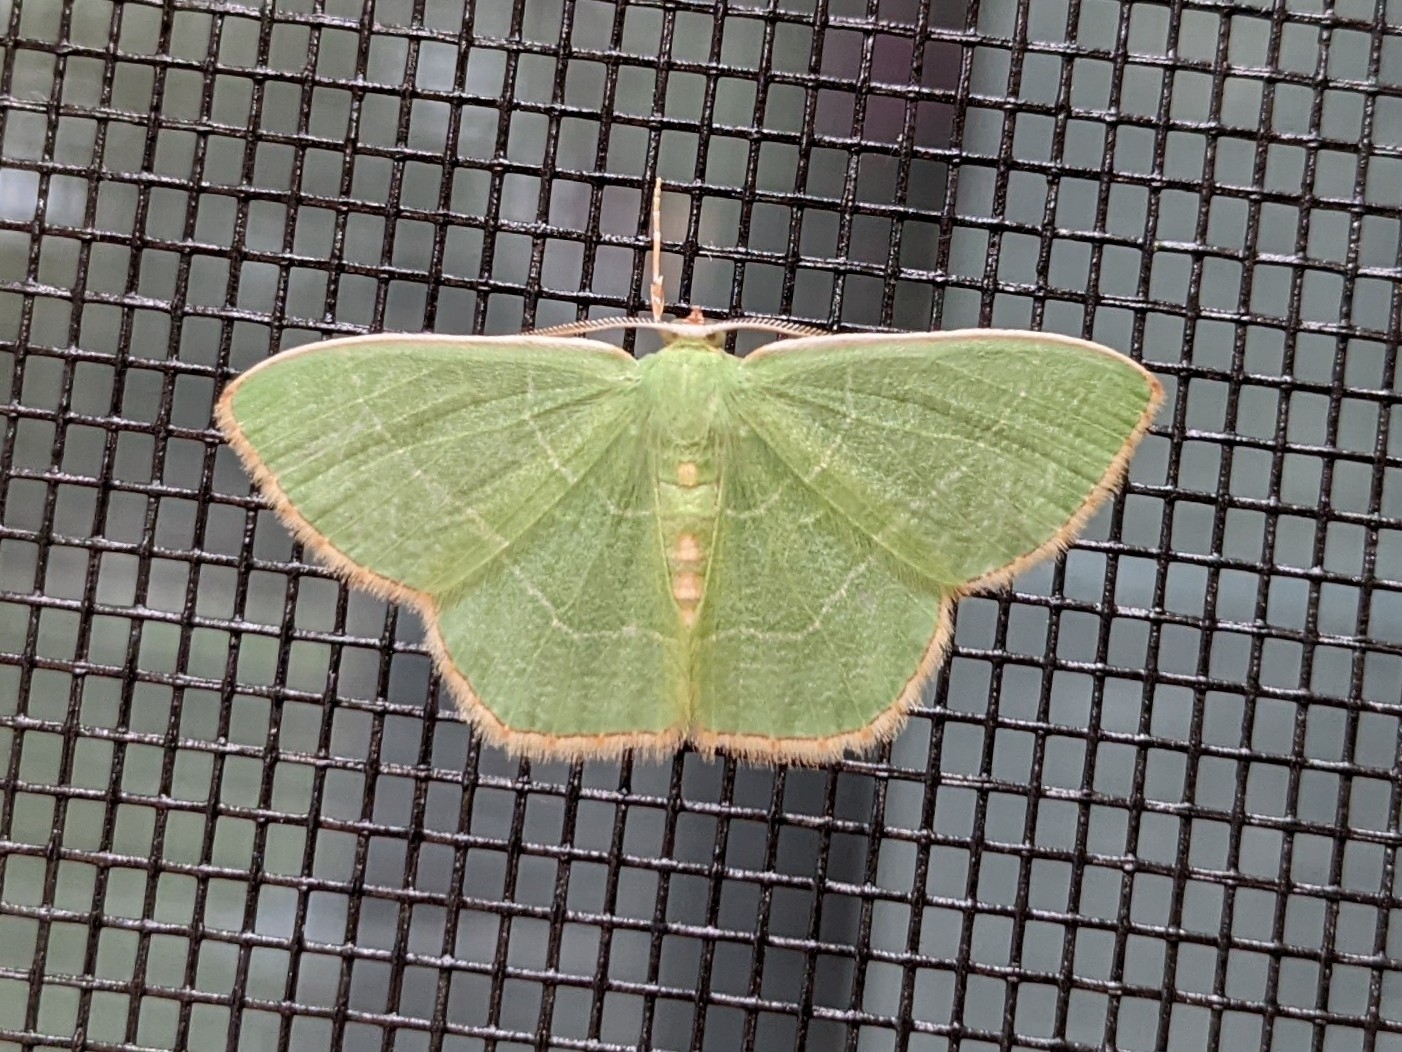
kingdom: Animalia
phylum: Arthropoda
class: Insecta
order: Lepidoptera
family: Geometridae
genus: Nemoria
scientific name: Nemoria bistriaria
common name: Red-fringed emerald
